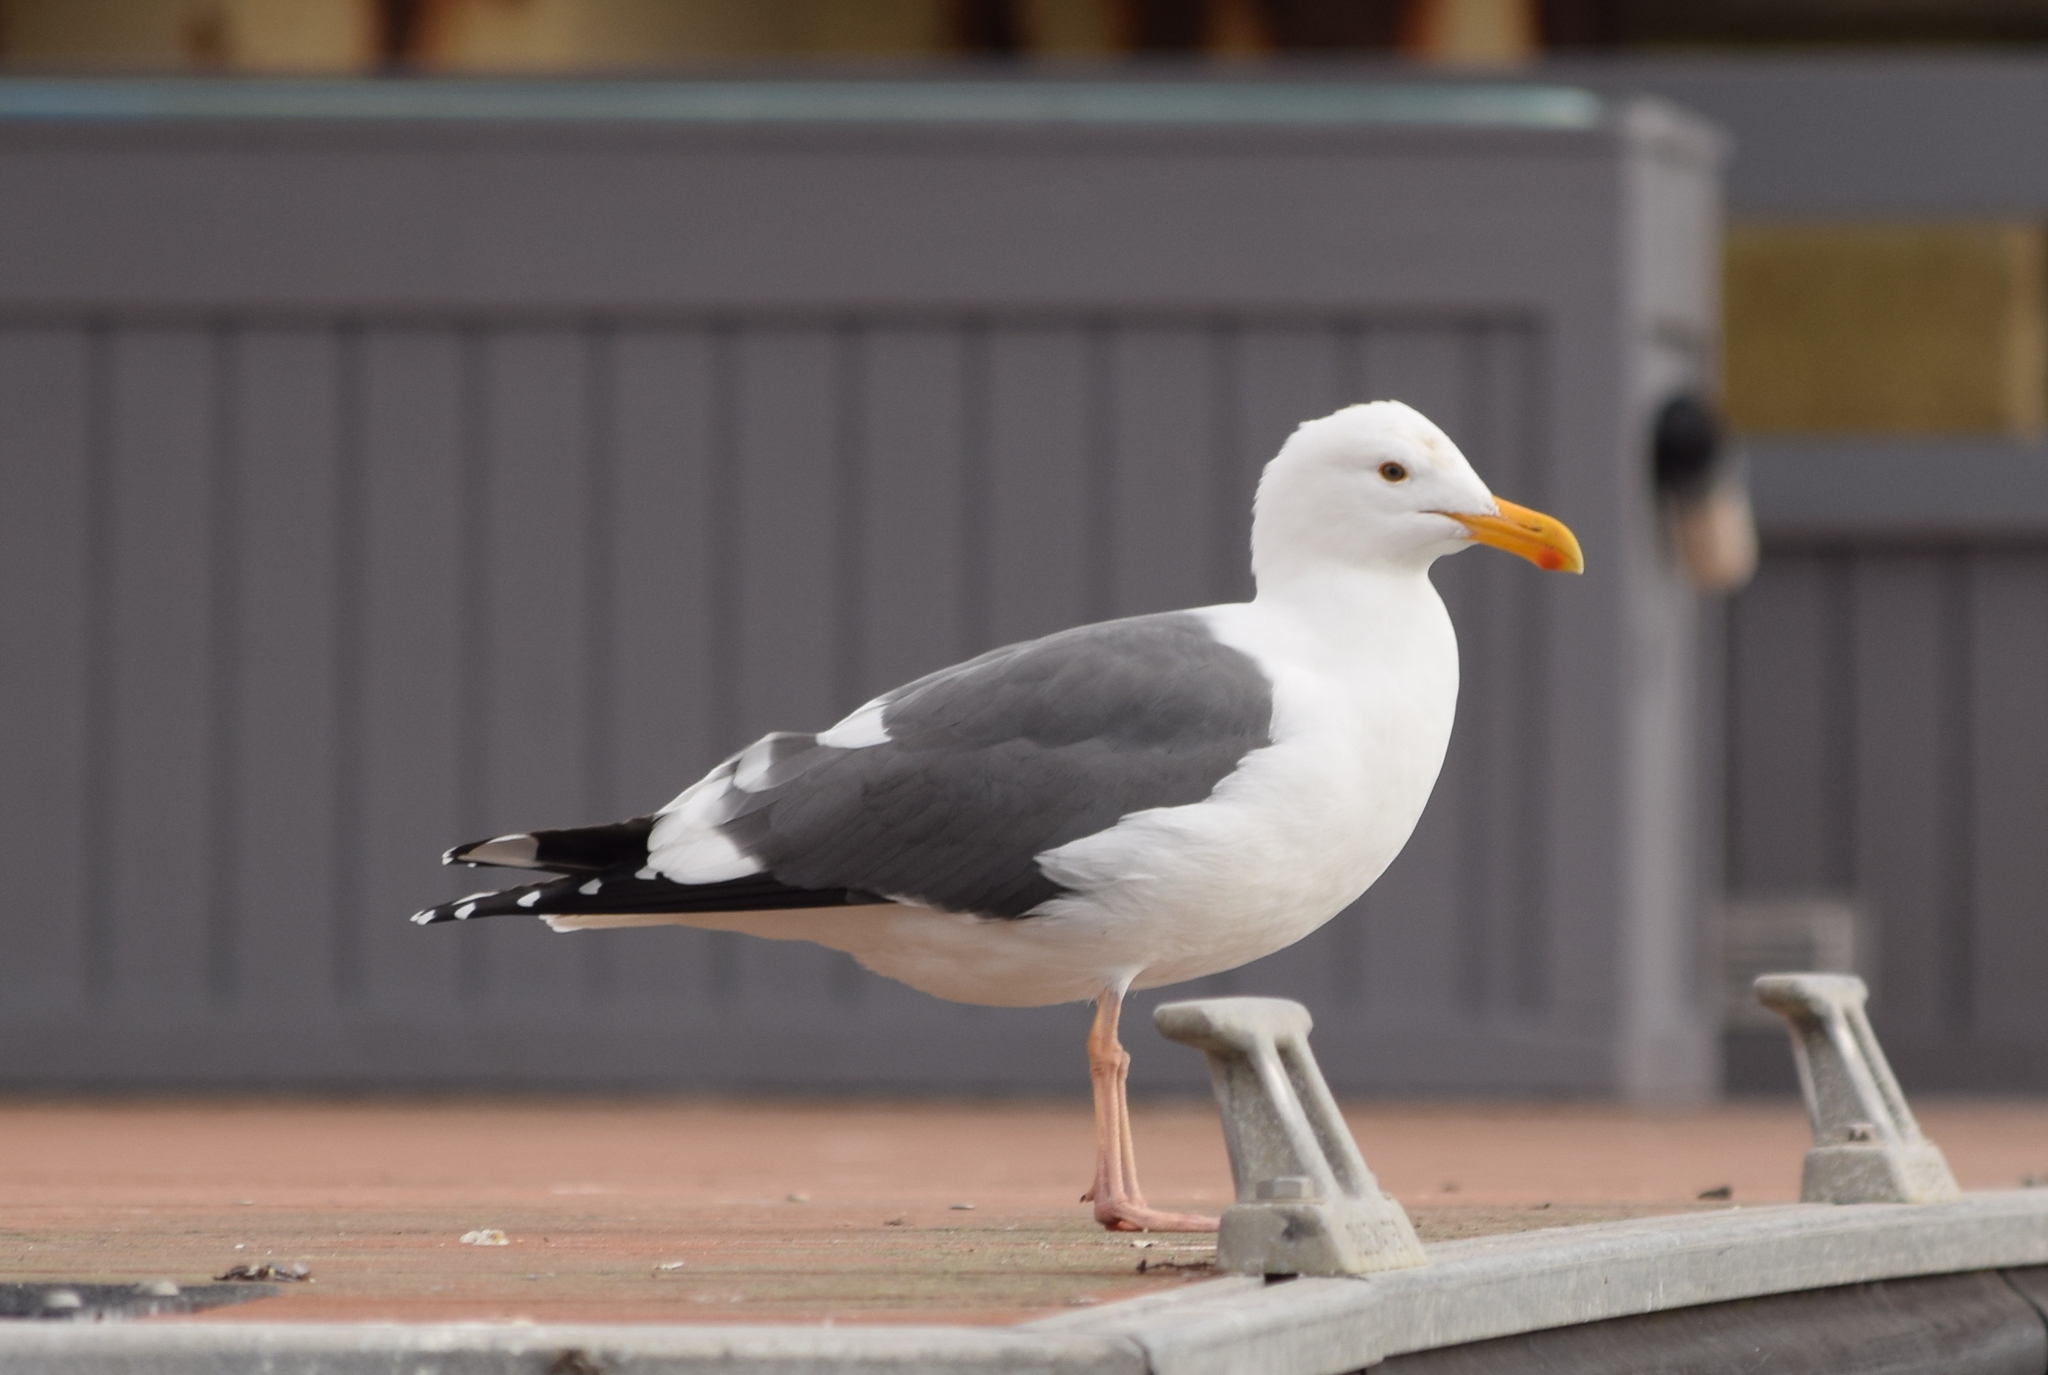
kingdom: Animalia
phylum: Chordata
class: Aves
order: Charadriiformes
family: Laridae
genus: Larus
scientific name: Larus occidentalis
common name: Western gull
